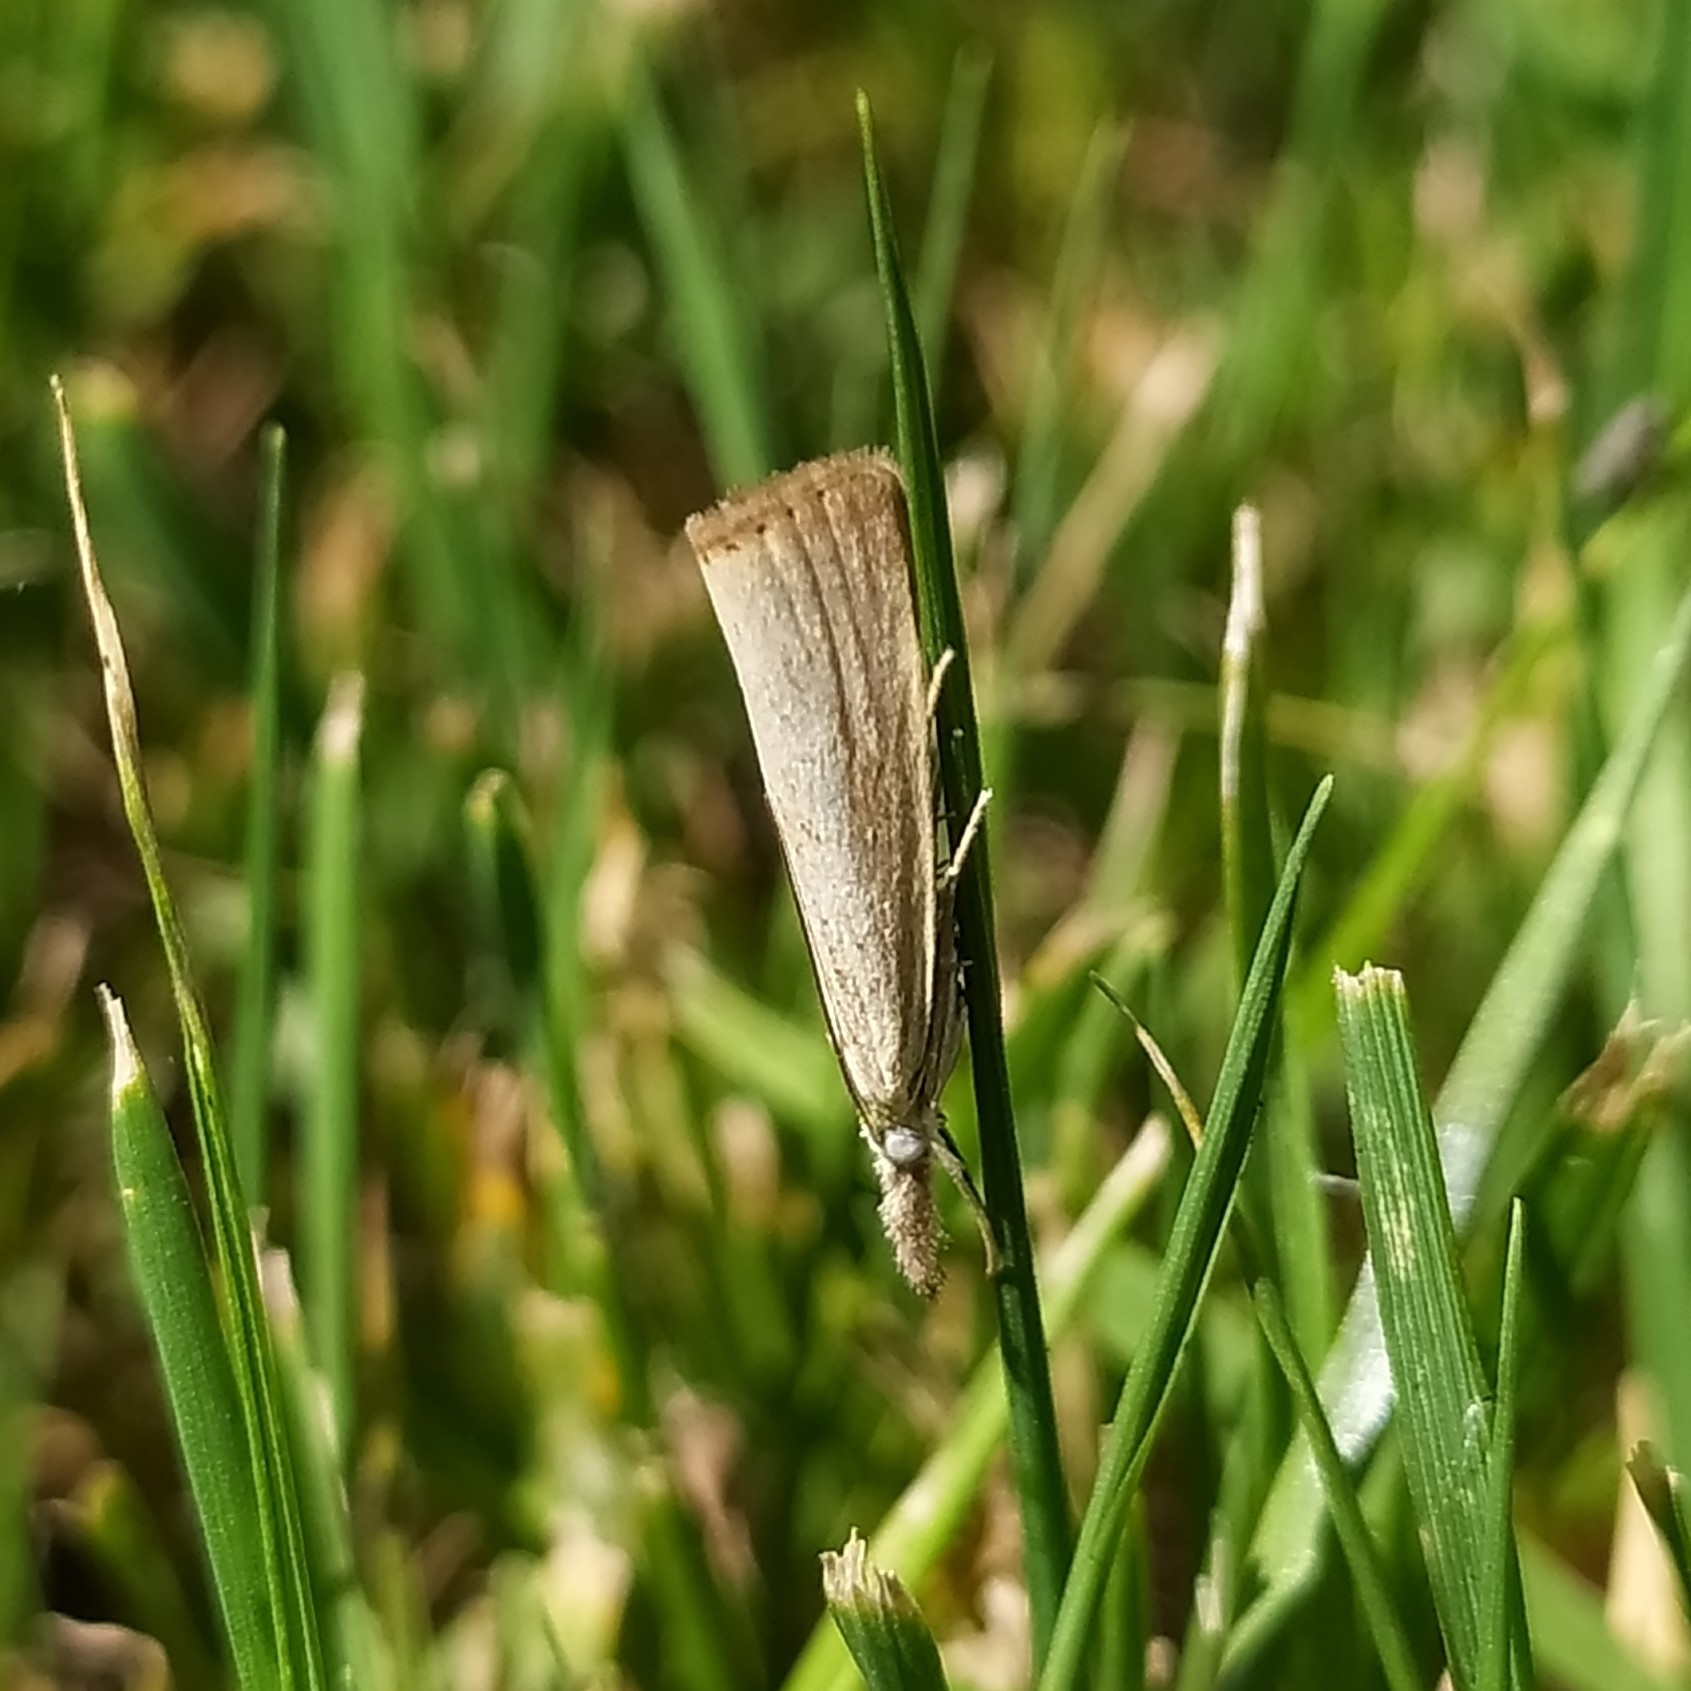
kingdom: Animalia
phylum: Arthropoda
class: Insecta
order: Lepidoptera
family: Crambidae
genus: Agriphila
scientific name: Agriphila straminella
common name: Straw grass-veneer
